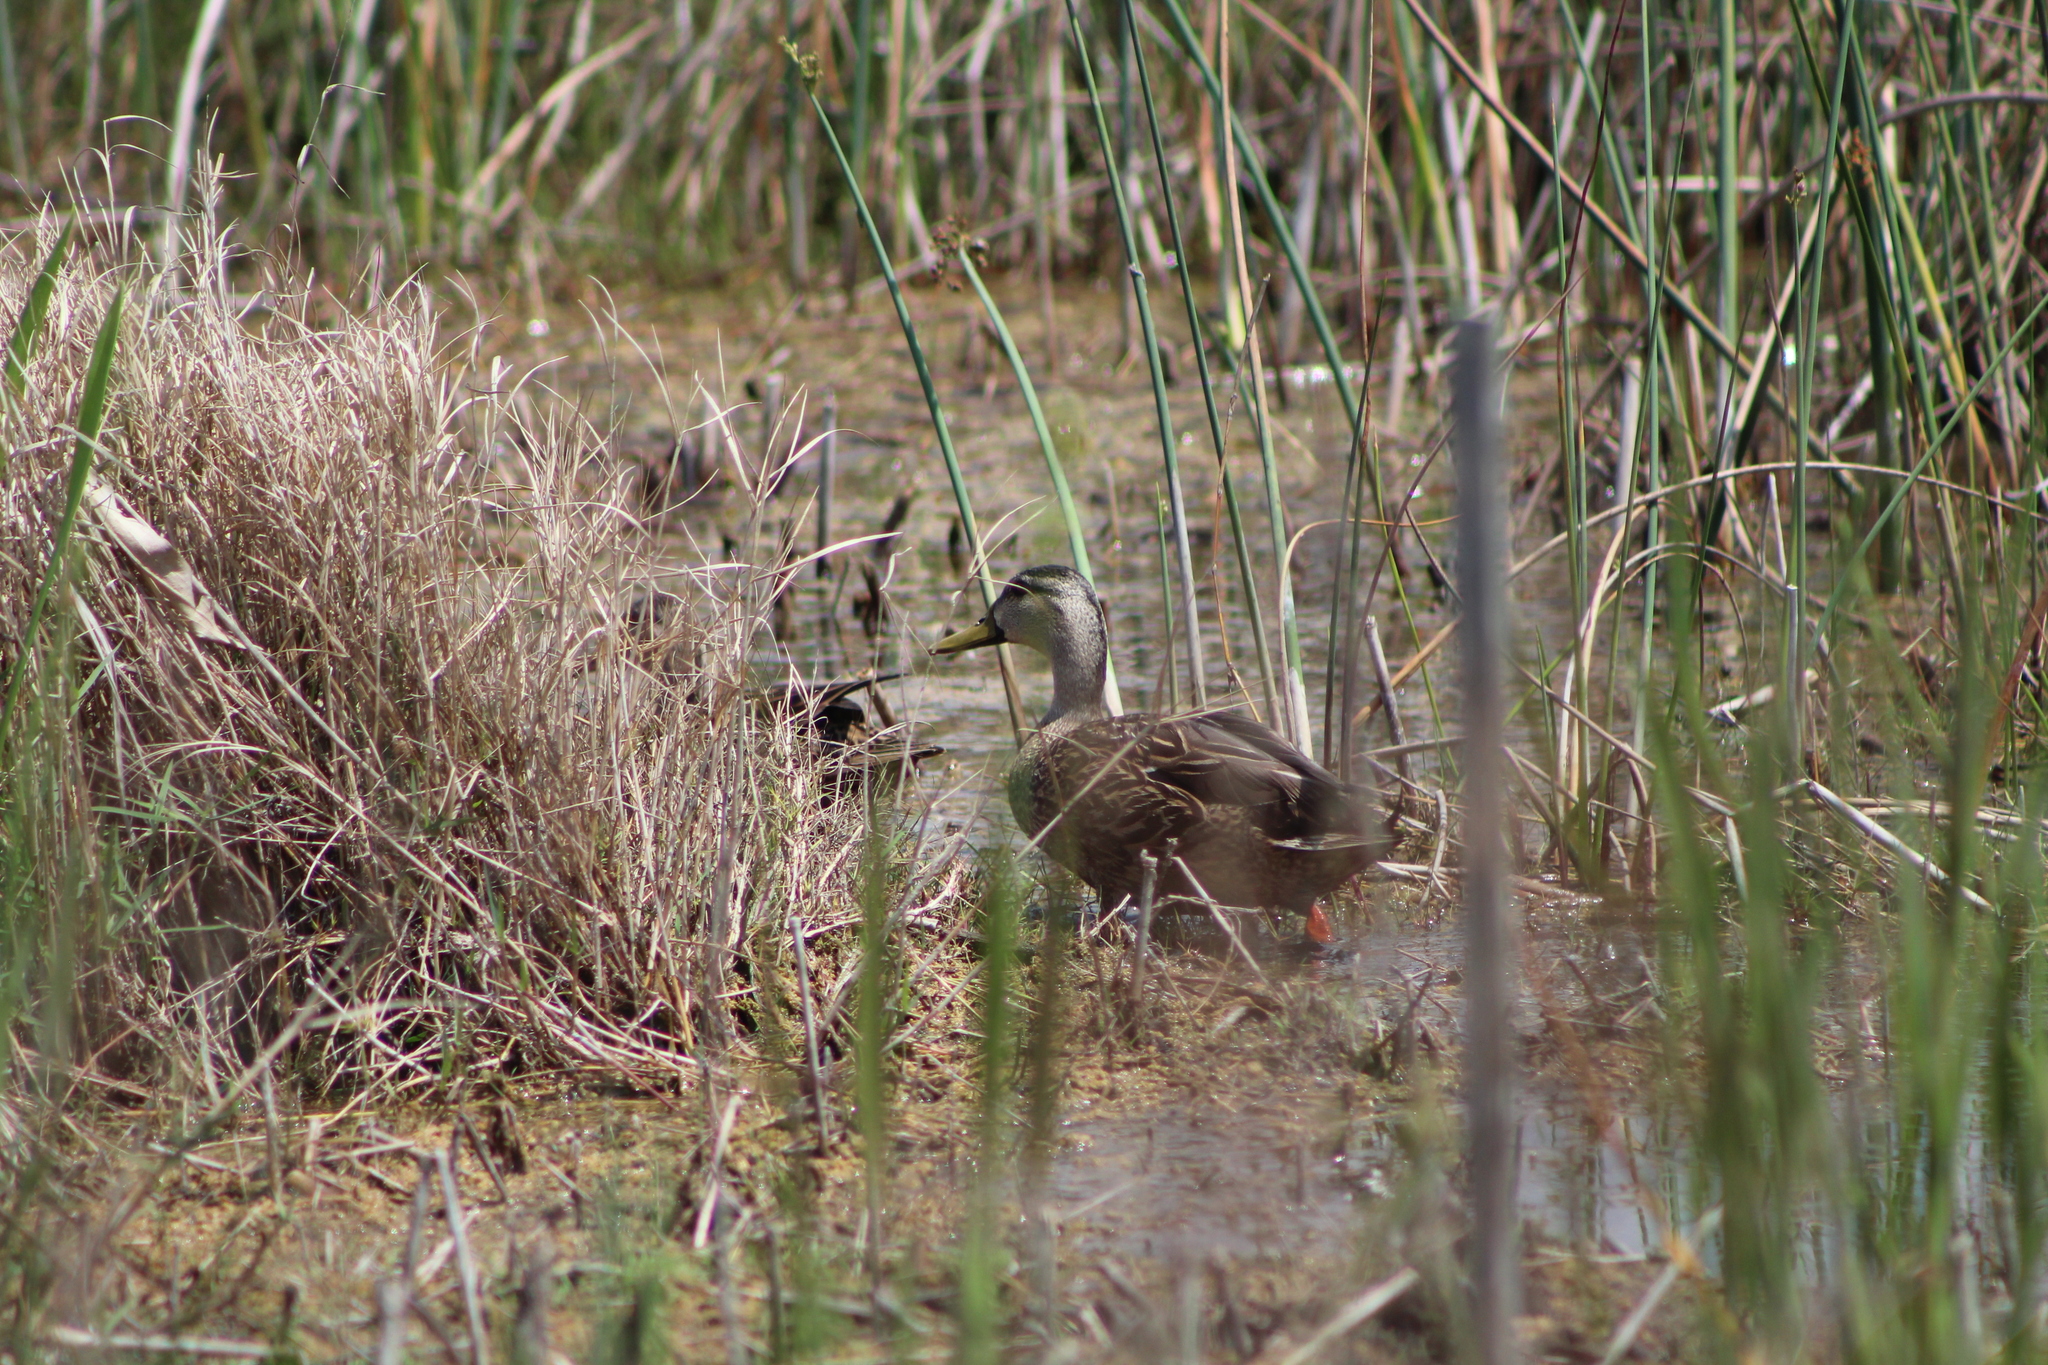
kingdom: Animalia
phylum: Chordata
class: Aves
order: Anseriformes
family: Anatidae
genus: Anas
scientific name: Anas fulvigula
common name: Mottled duck
